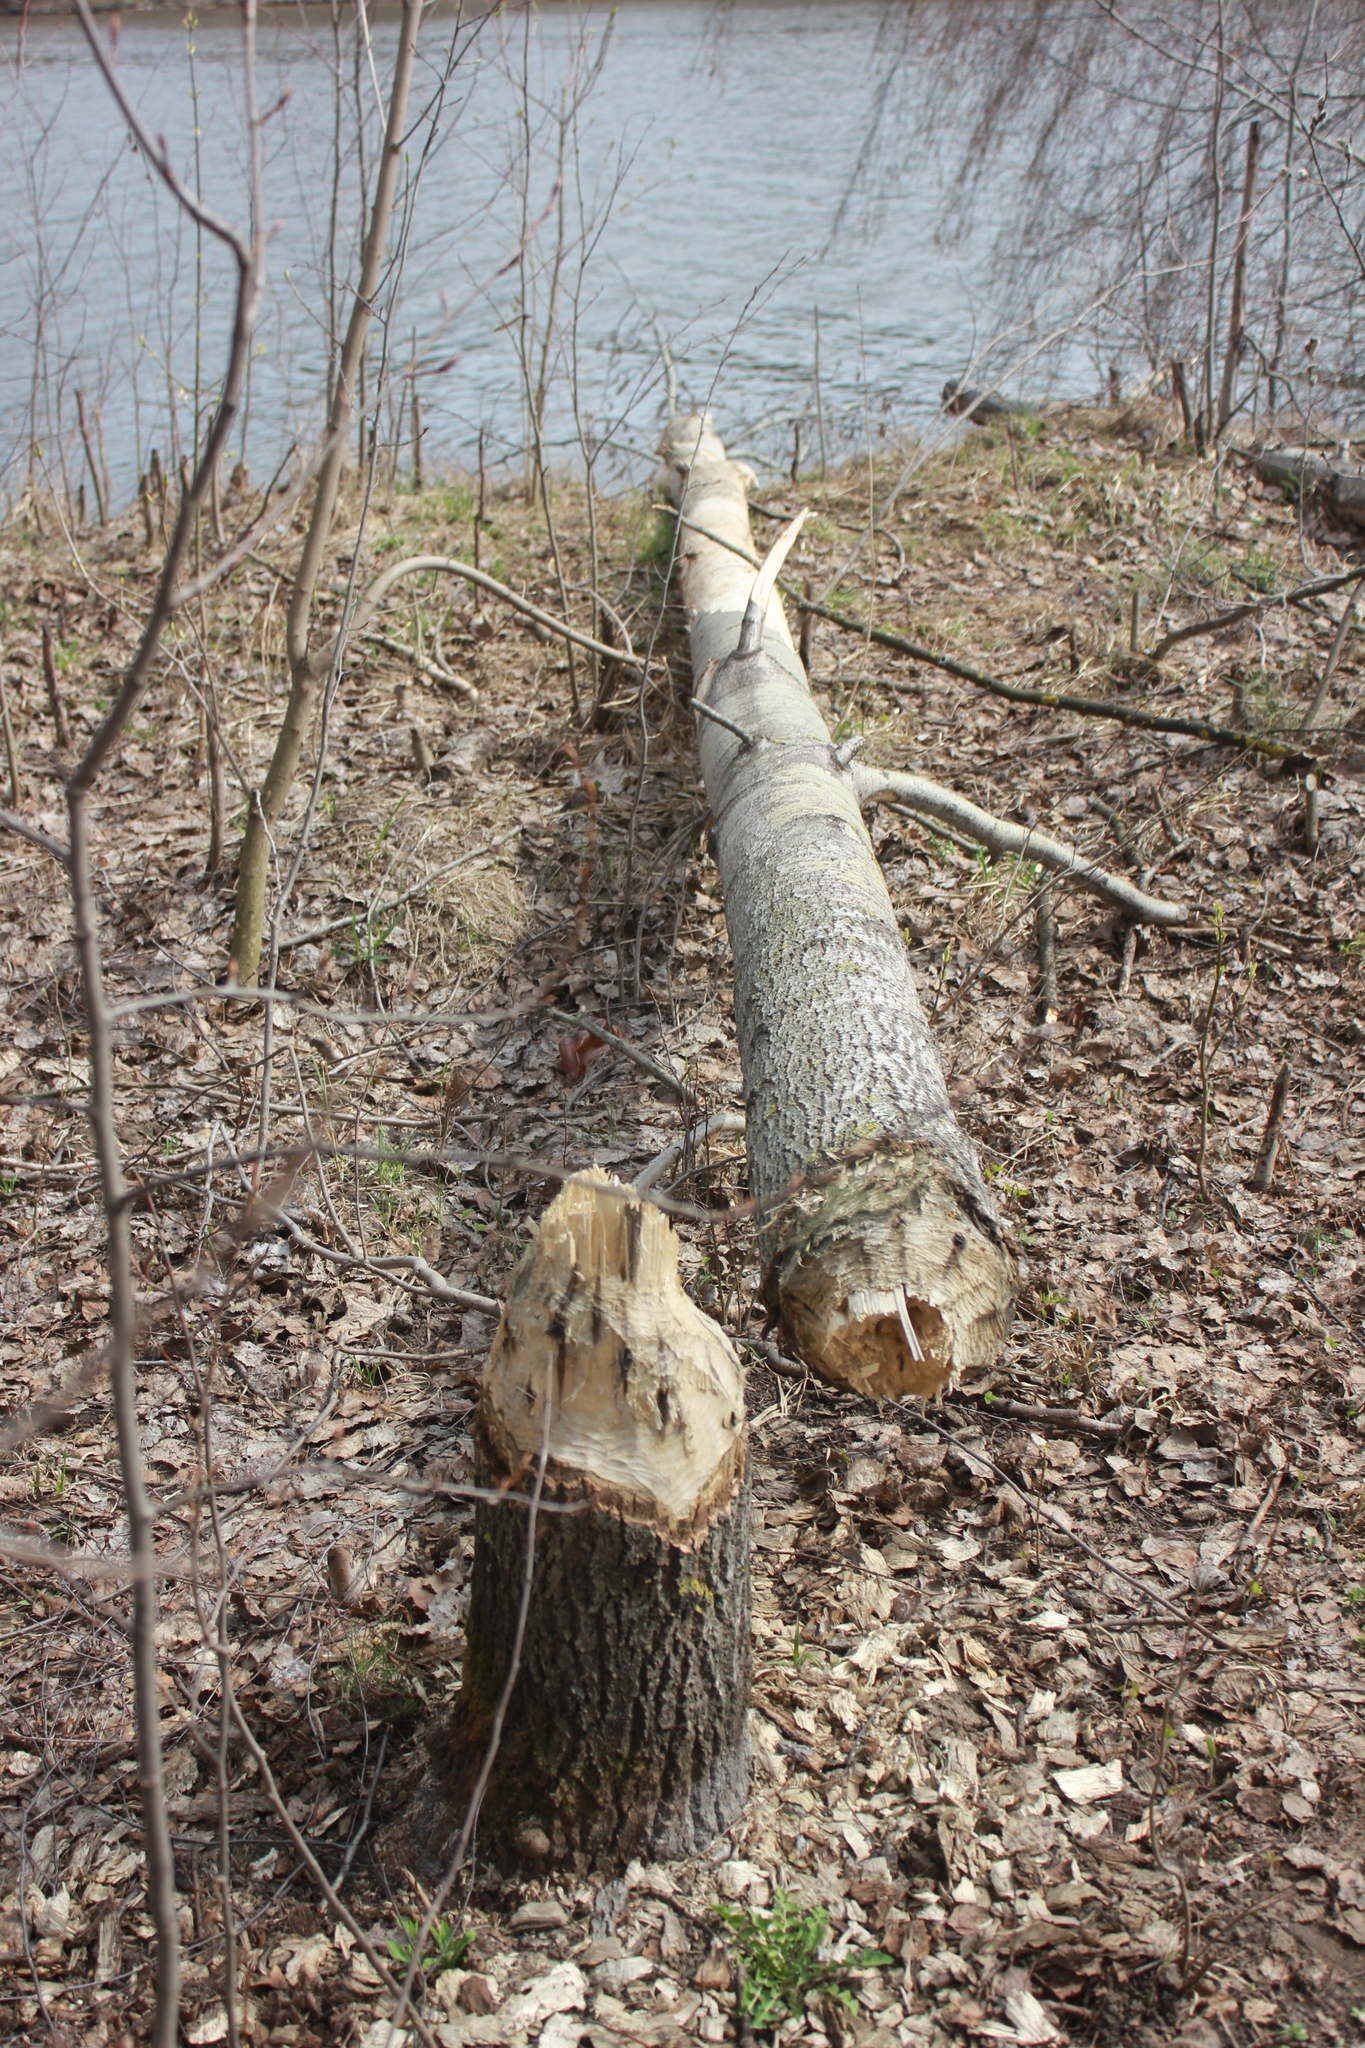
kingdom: Animalia
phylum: Chordata
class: Mammalia
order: Rodentia
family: Castoridae
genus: Castor
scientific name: Castor fiber
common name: Eurasian beaver
